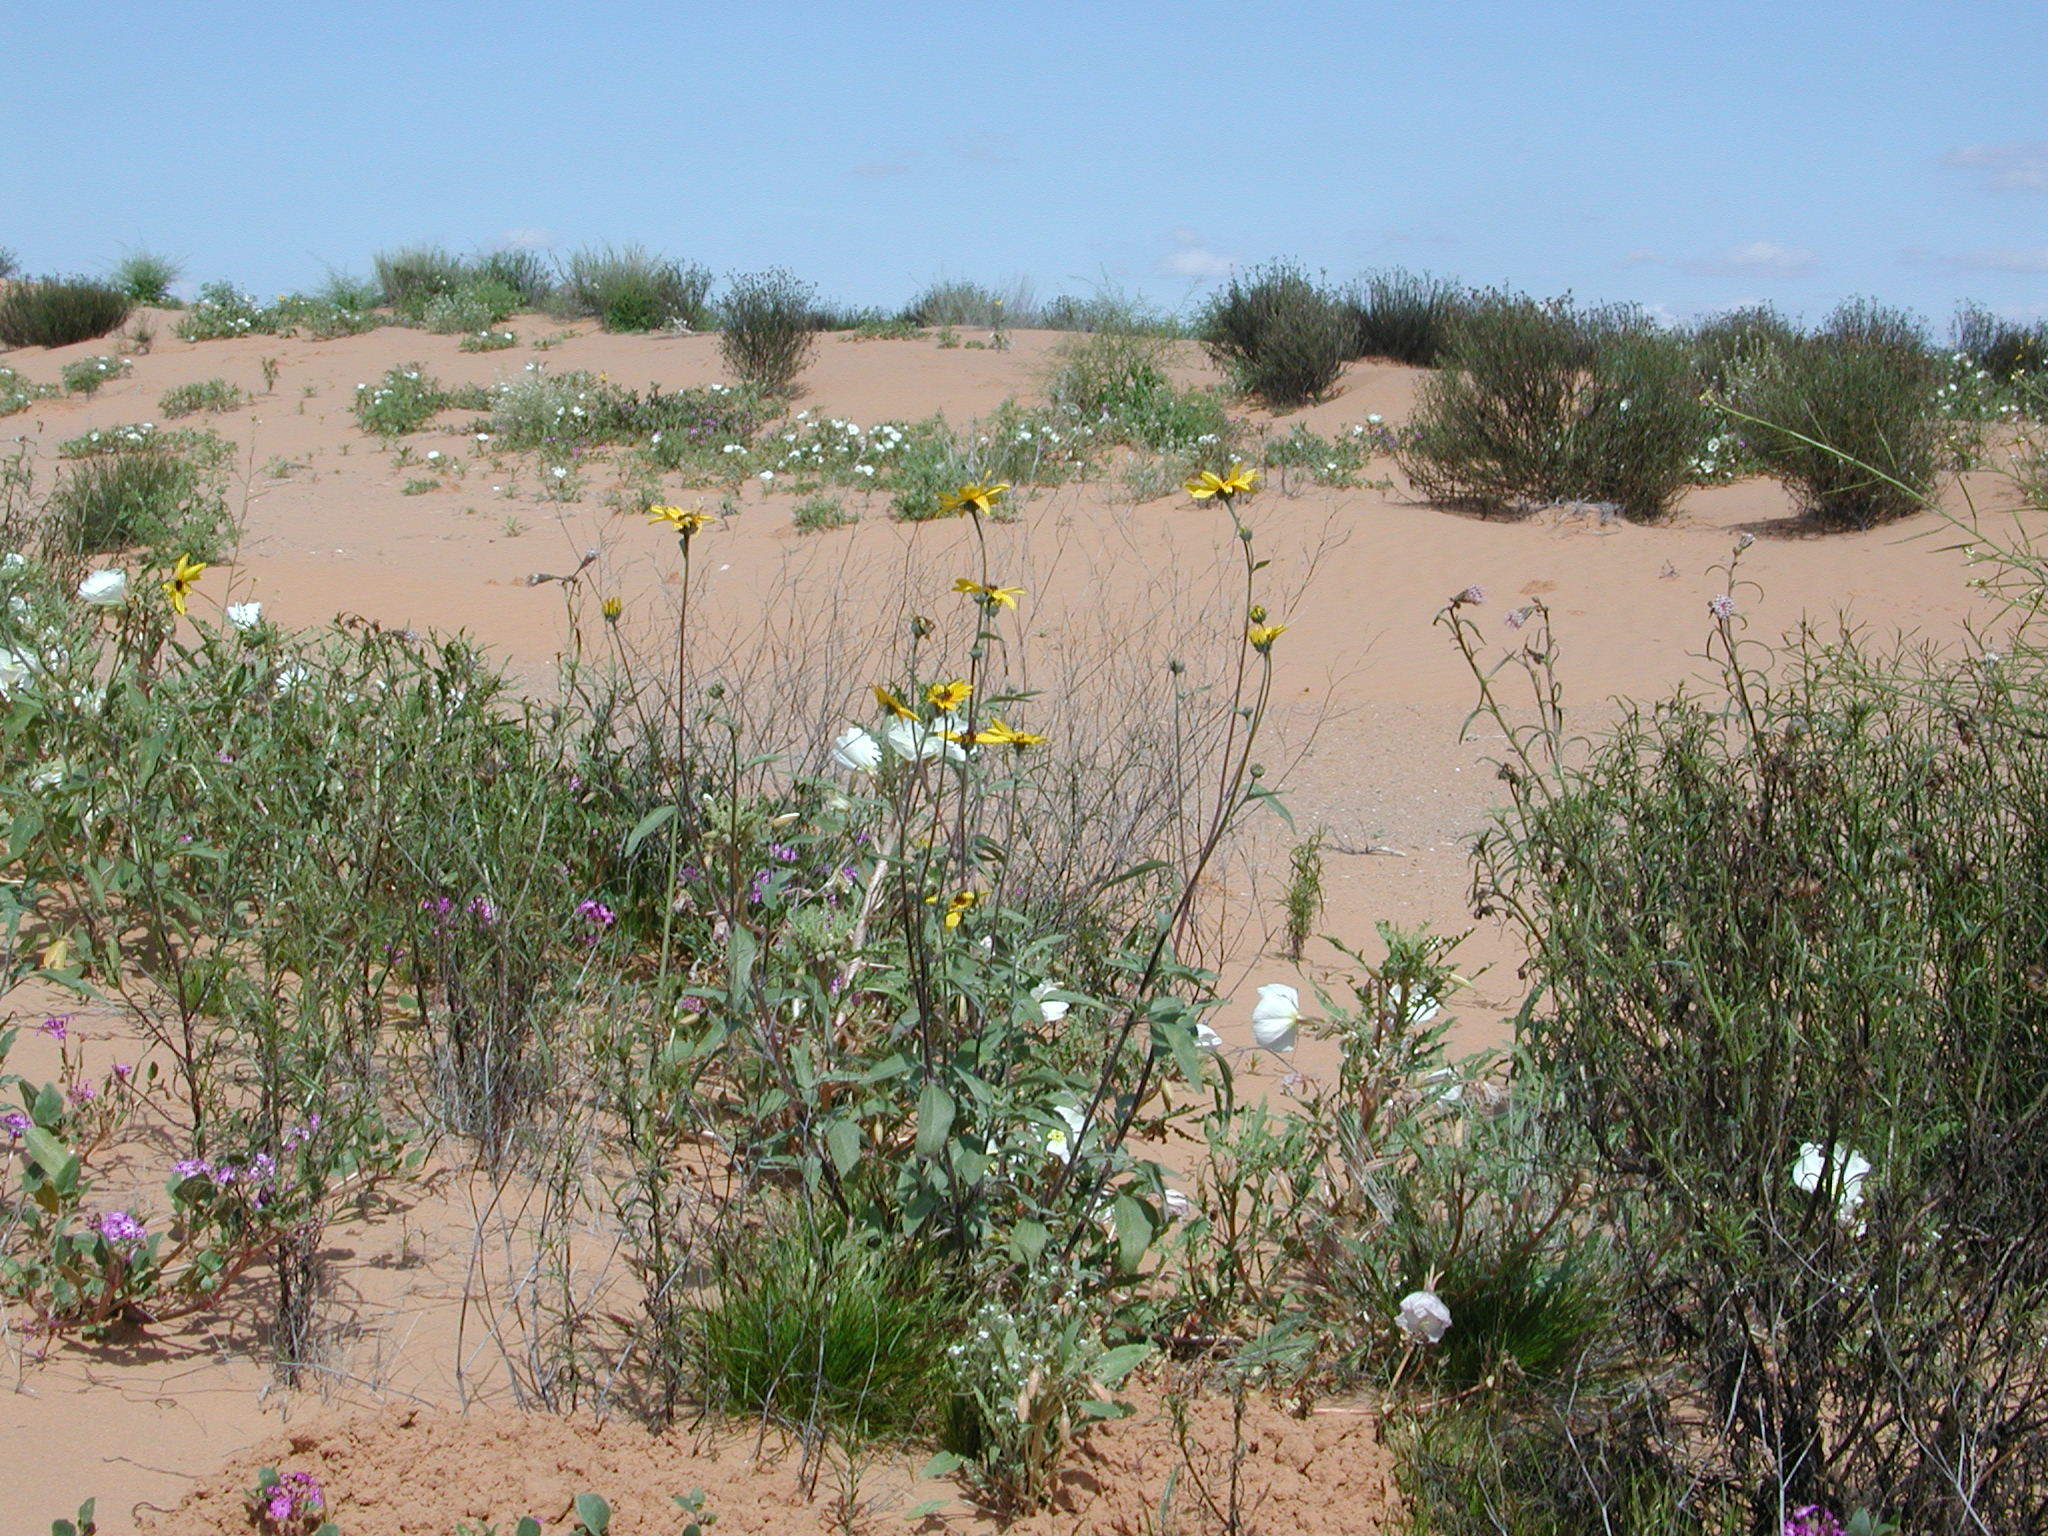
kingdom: Plantae
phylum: Tracheophyta
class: Magnoliopsida
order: Asterales
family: Asteraceae
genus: Helianthus
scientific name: Helianthus petiolaris
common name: Lesser sunflower
